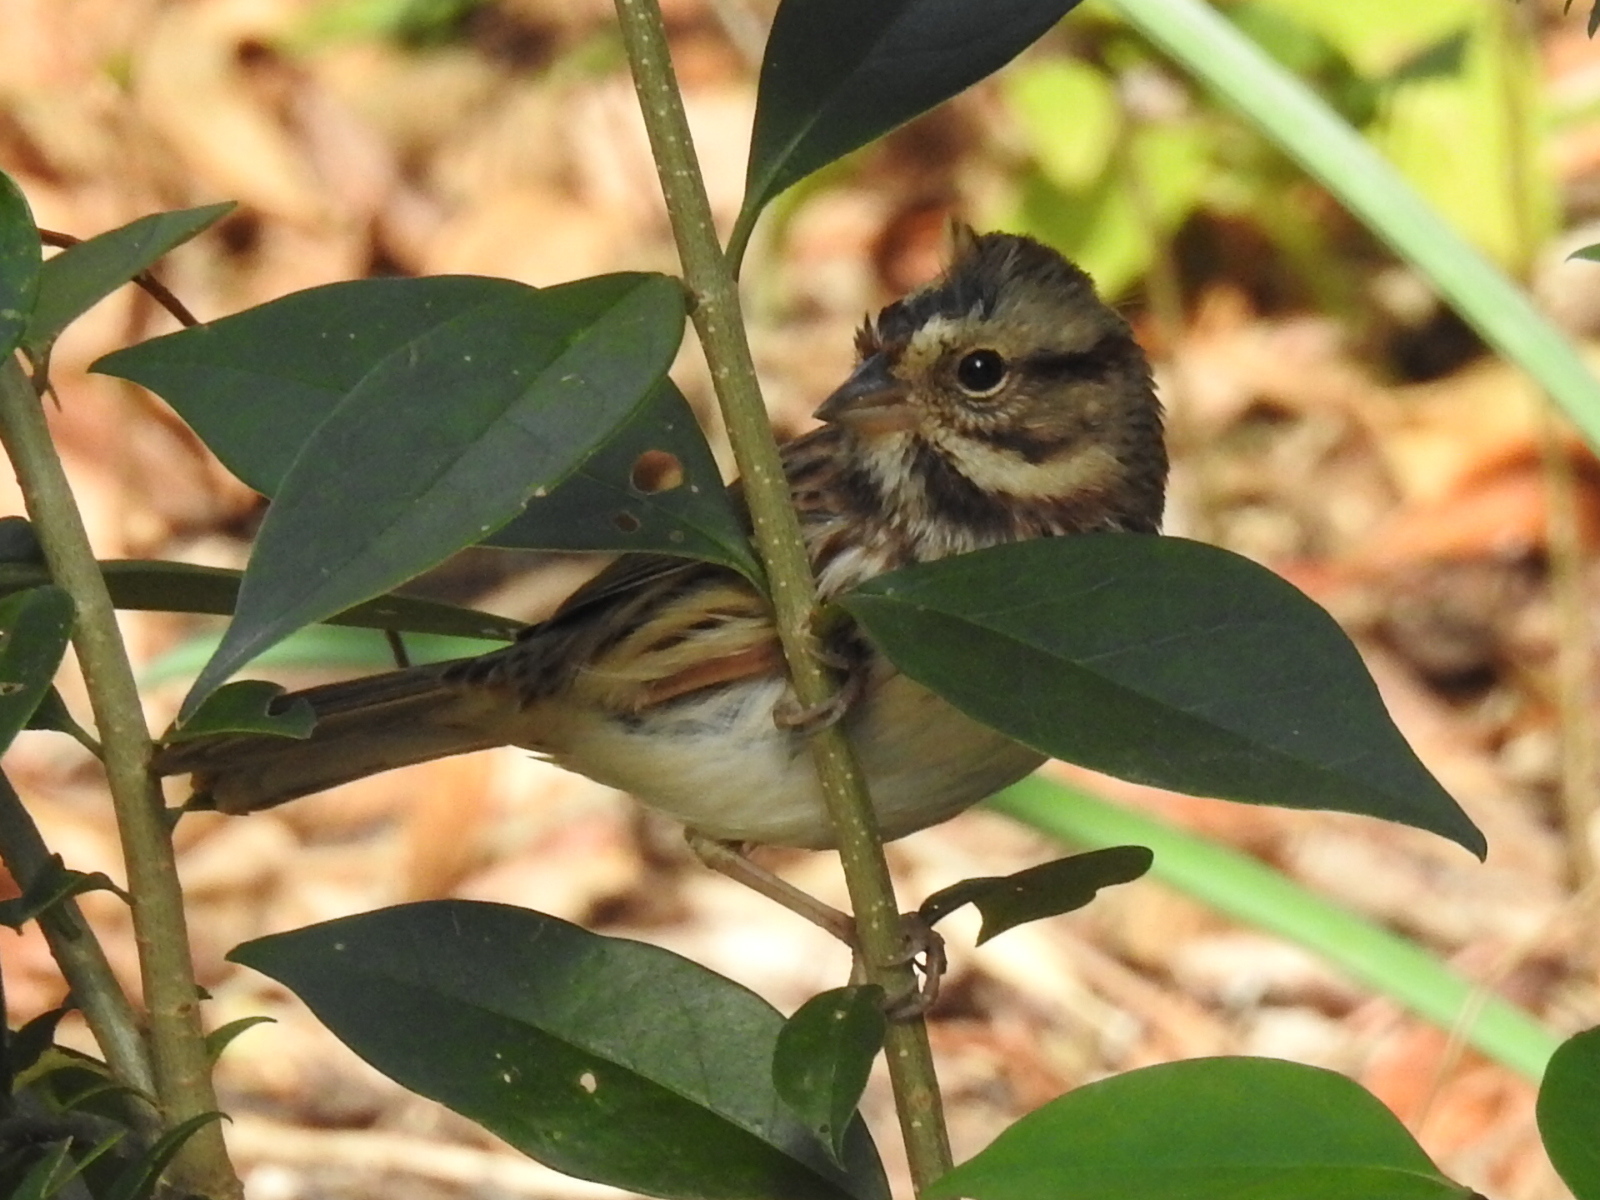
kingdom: Animalia
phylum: Chordata
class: Aves
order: Passeriformes
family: Passerellidae
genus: Melospiza
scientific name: Melospiza melodia
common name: Song sparrow
